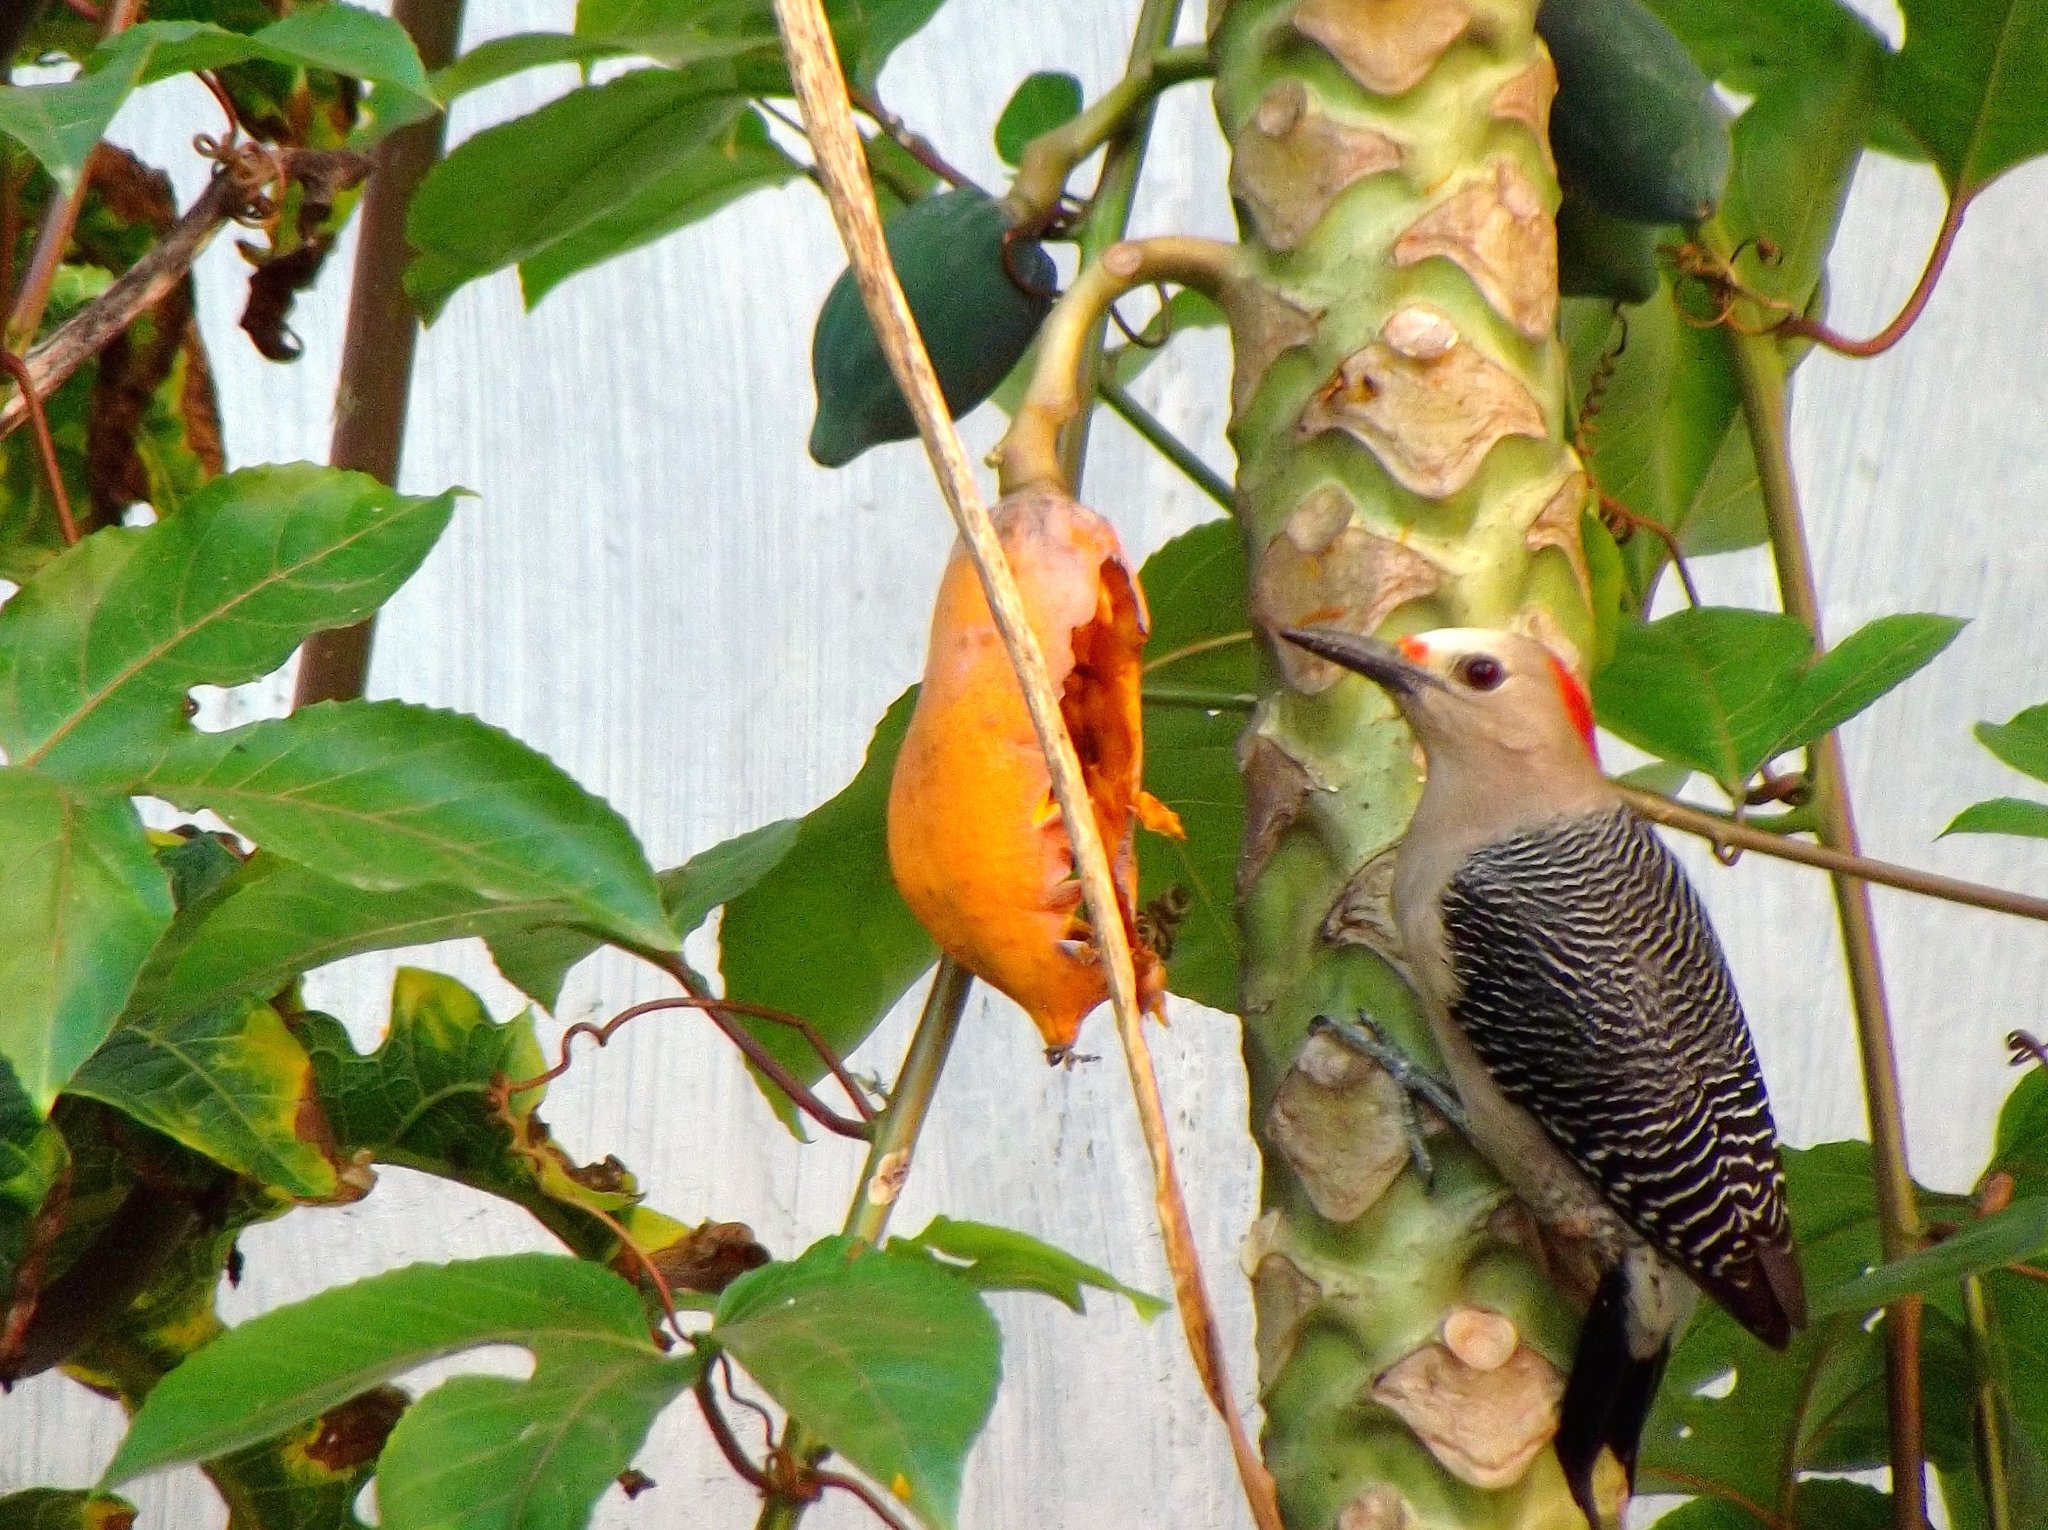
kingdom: Animalia
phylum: Chordata
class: Aves
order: Piciformes
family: Picidae
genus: Melanerpes
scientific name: Melanerpes aurifrons
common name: Golden-fronted woodpecker
